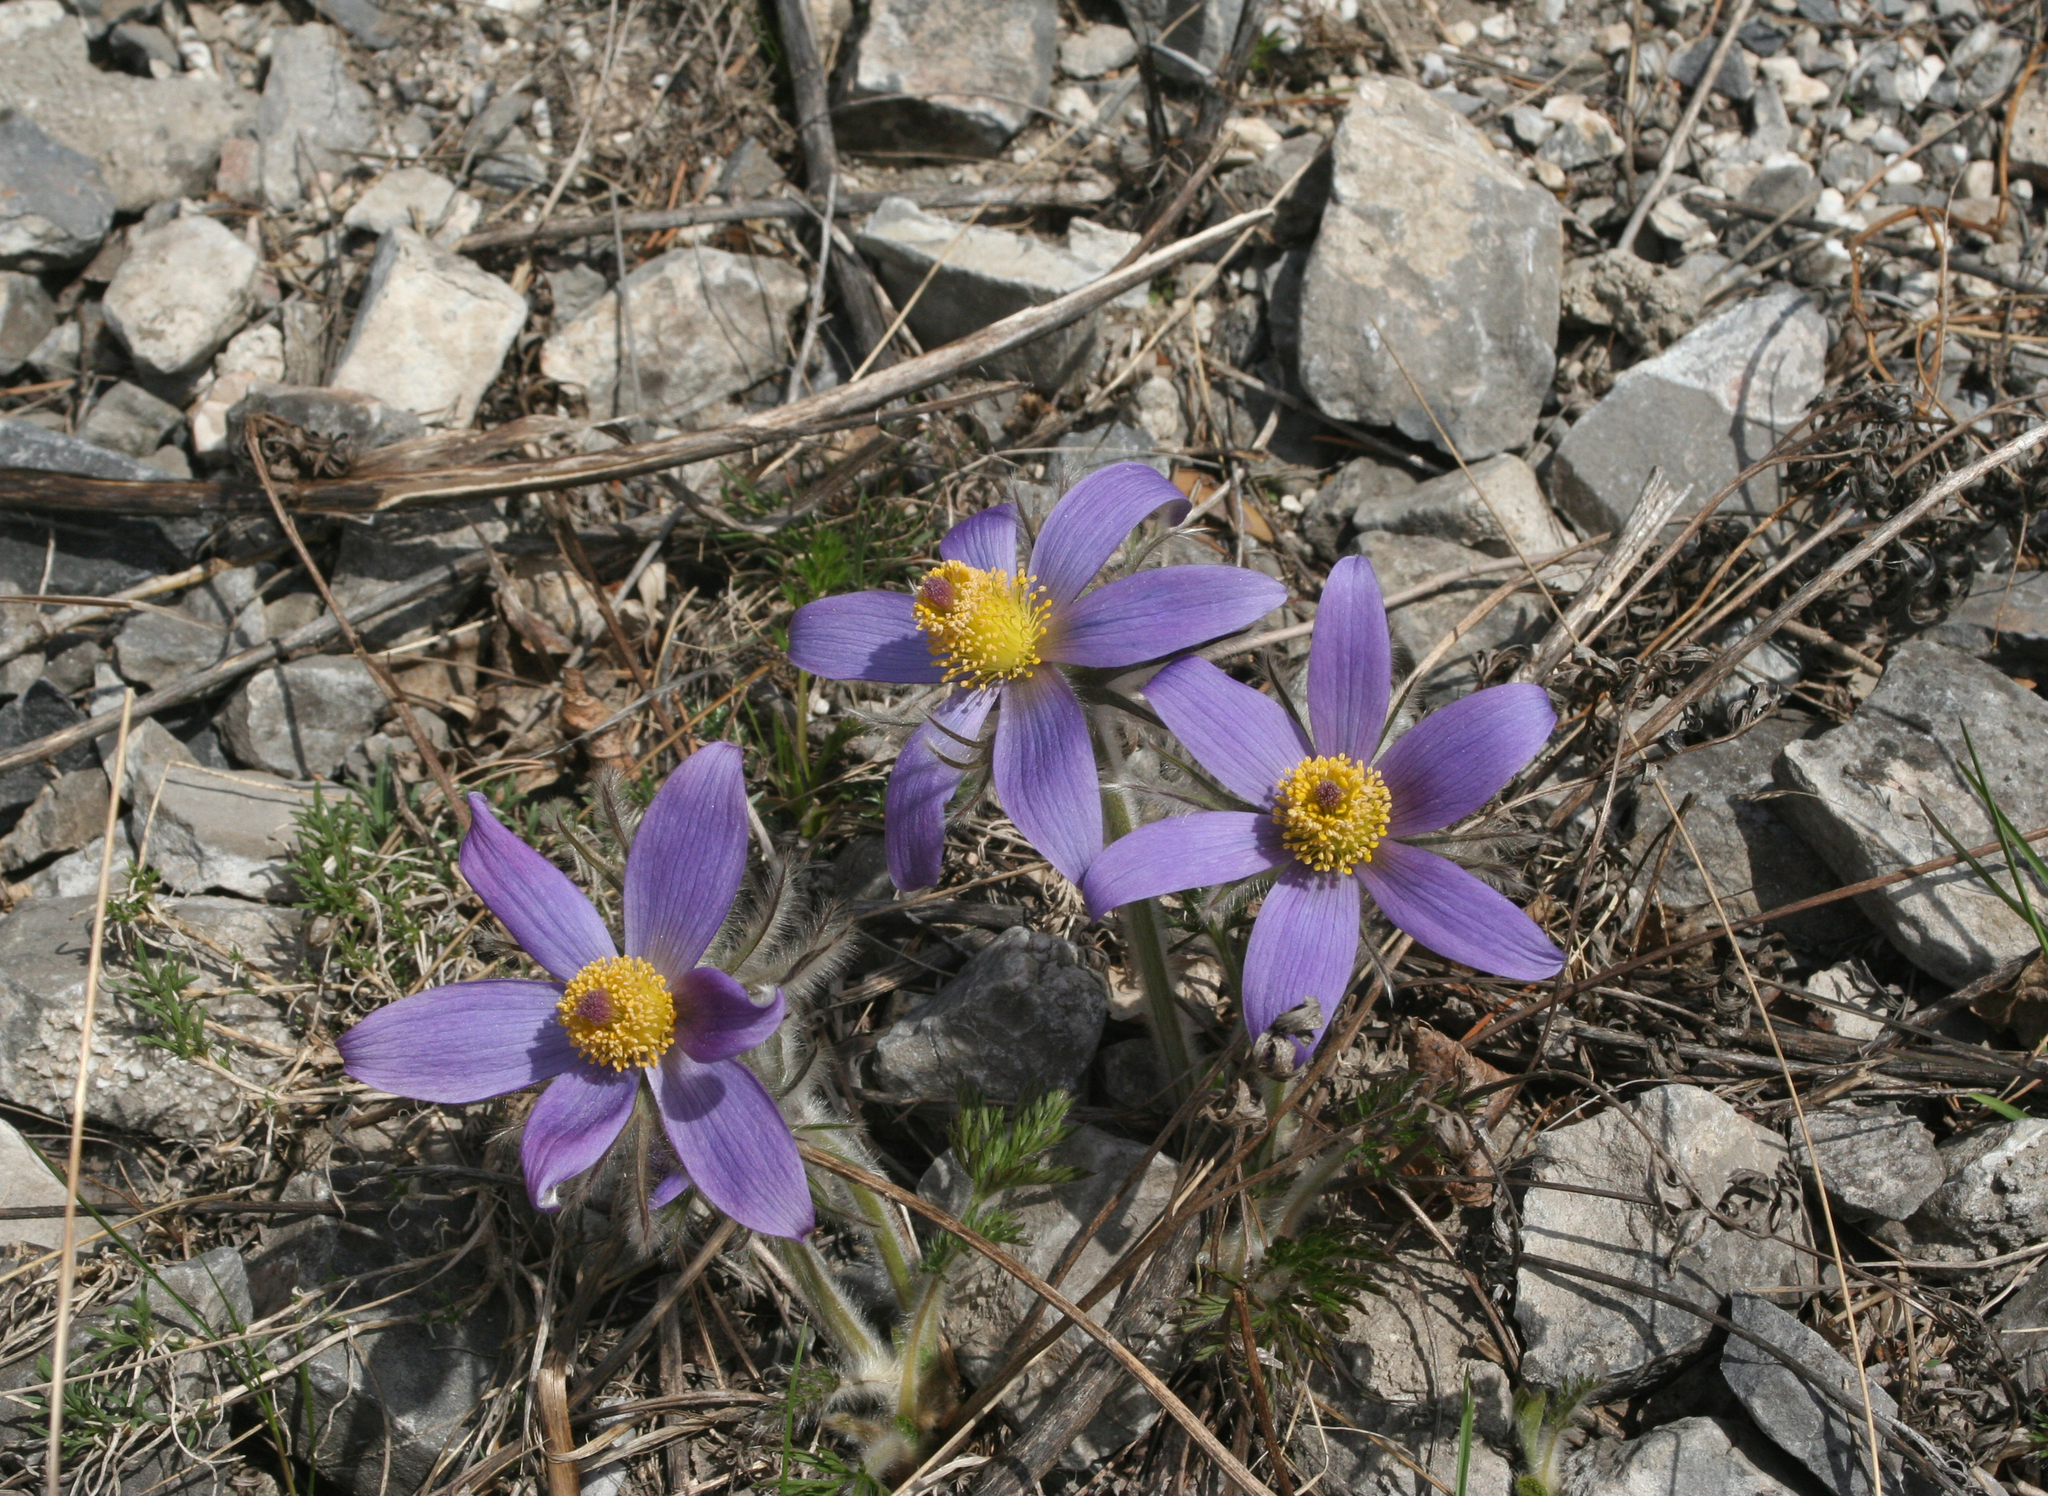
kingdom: Plantae
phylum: Tracheophyta
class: Magnoliopsida
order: Ranunculales
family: Ranunculaceae
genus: Pulsatilla
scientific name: Pulsatilla turczaninovii
